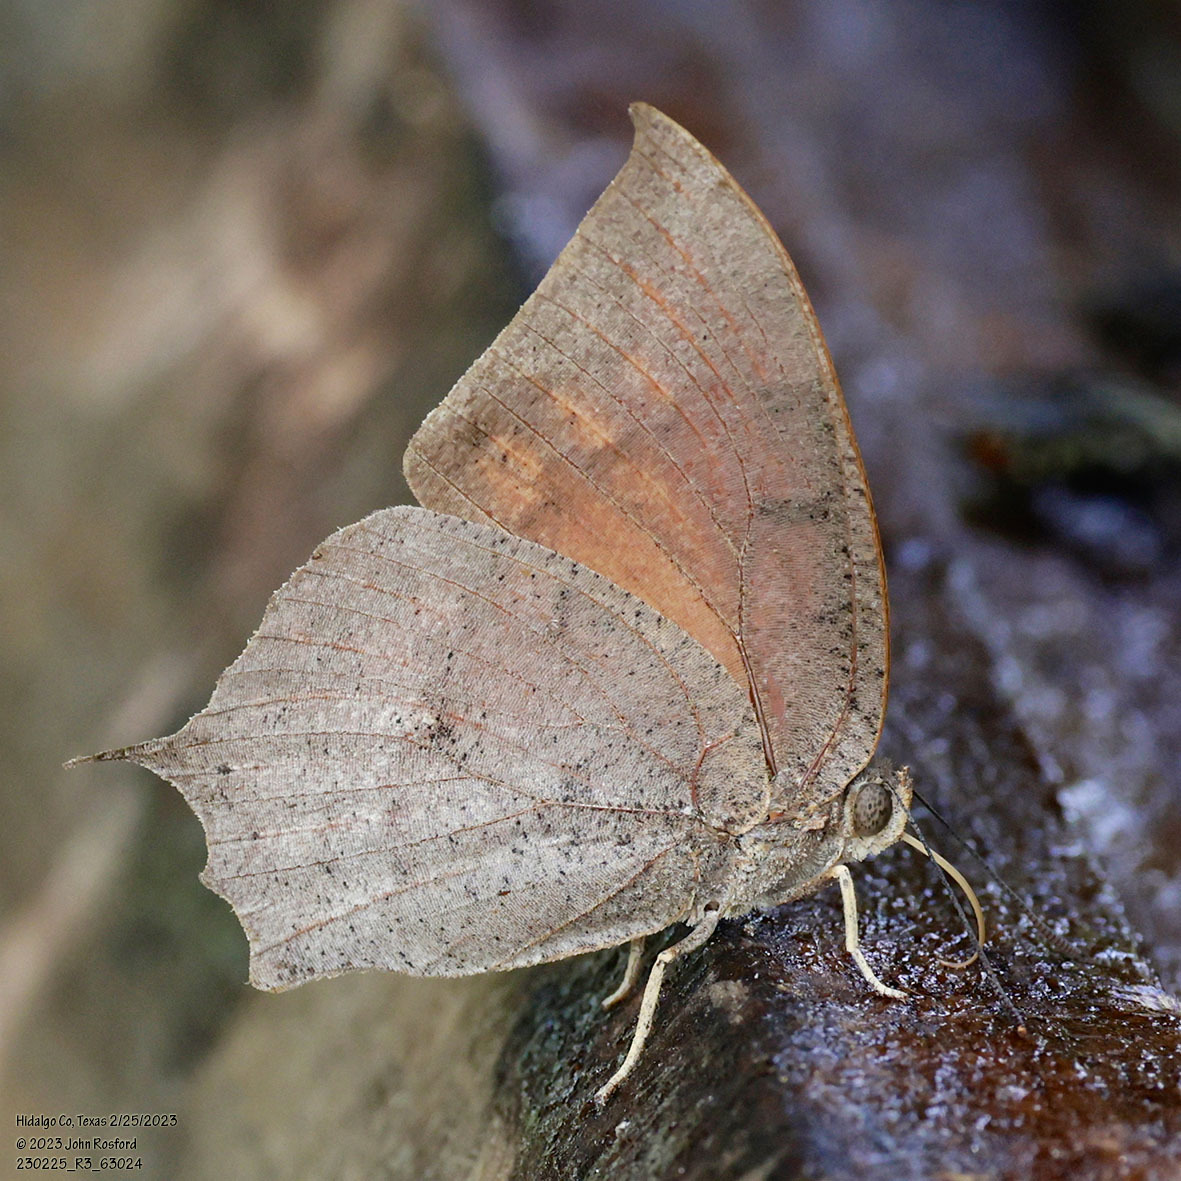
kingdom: Animalia
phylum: Arthropoda
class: Insecta
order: Lepidoptera
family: Nymphalidae
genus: Anaea
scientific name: Anaea aidea
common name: Tropical leafwing
